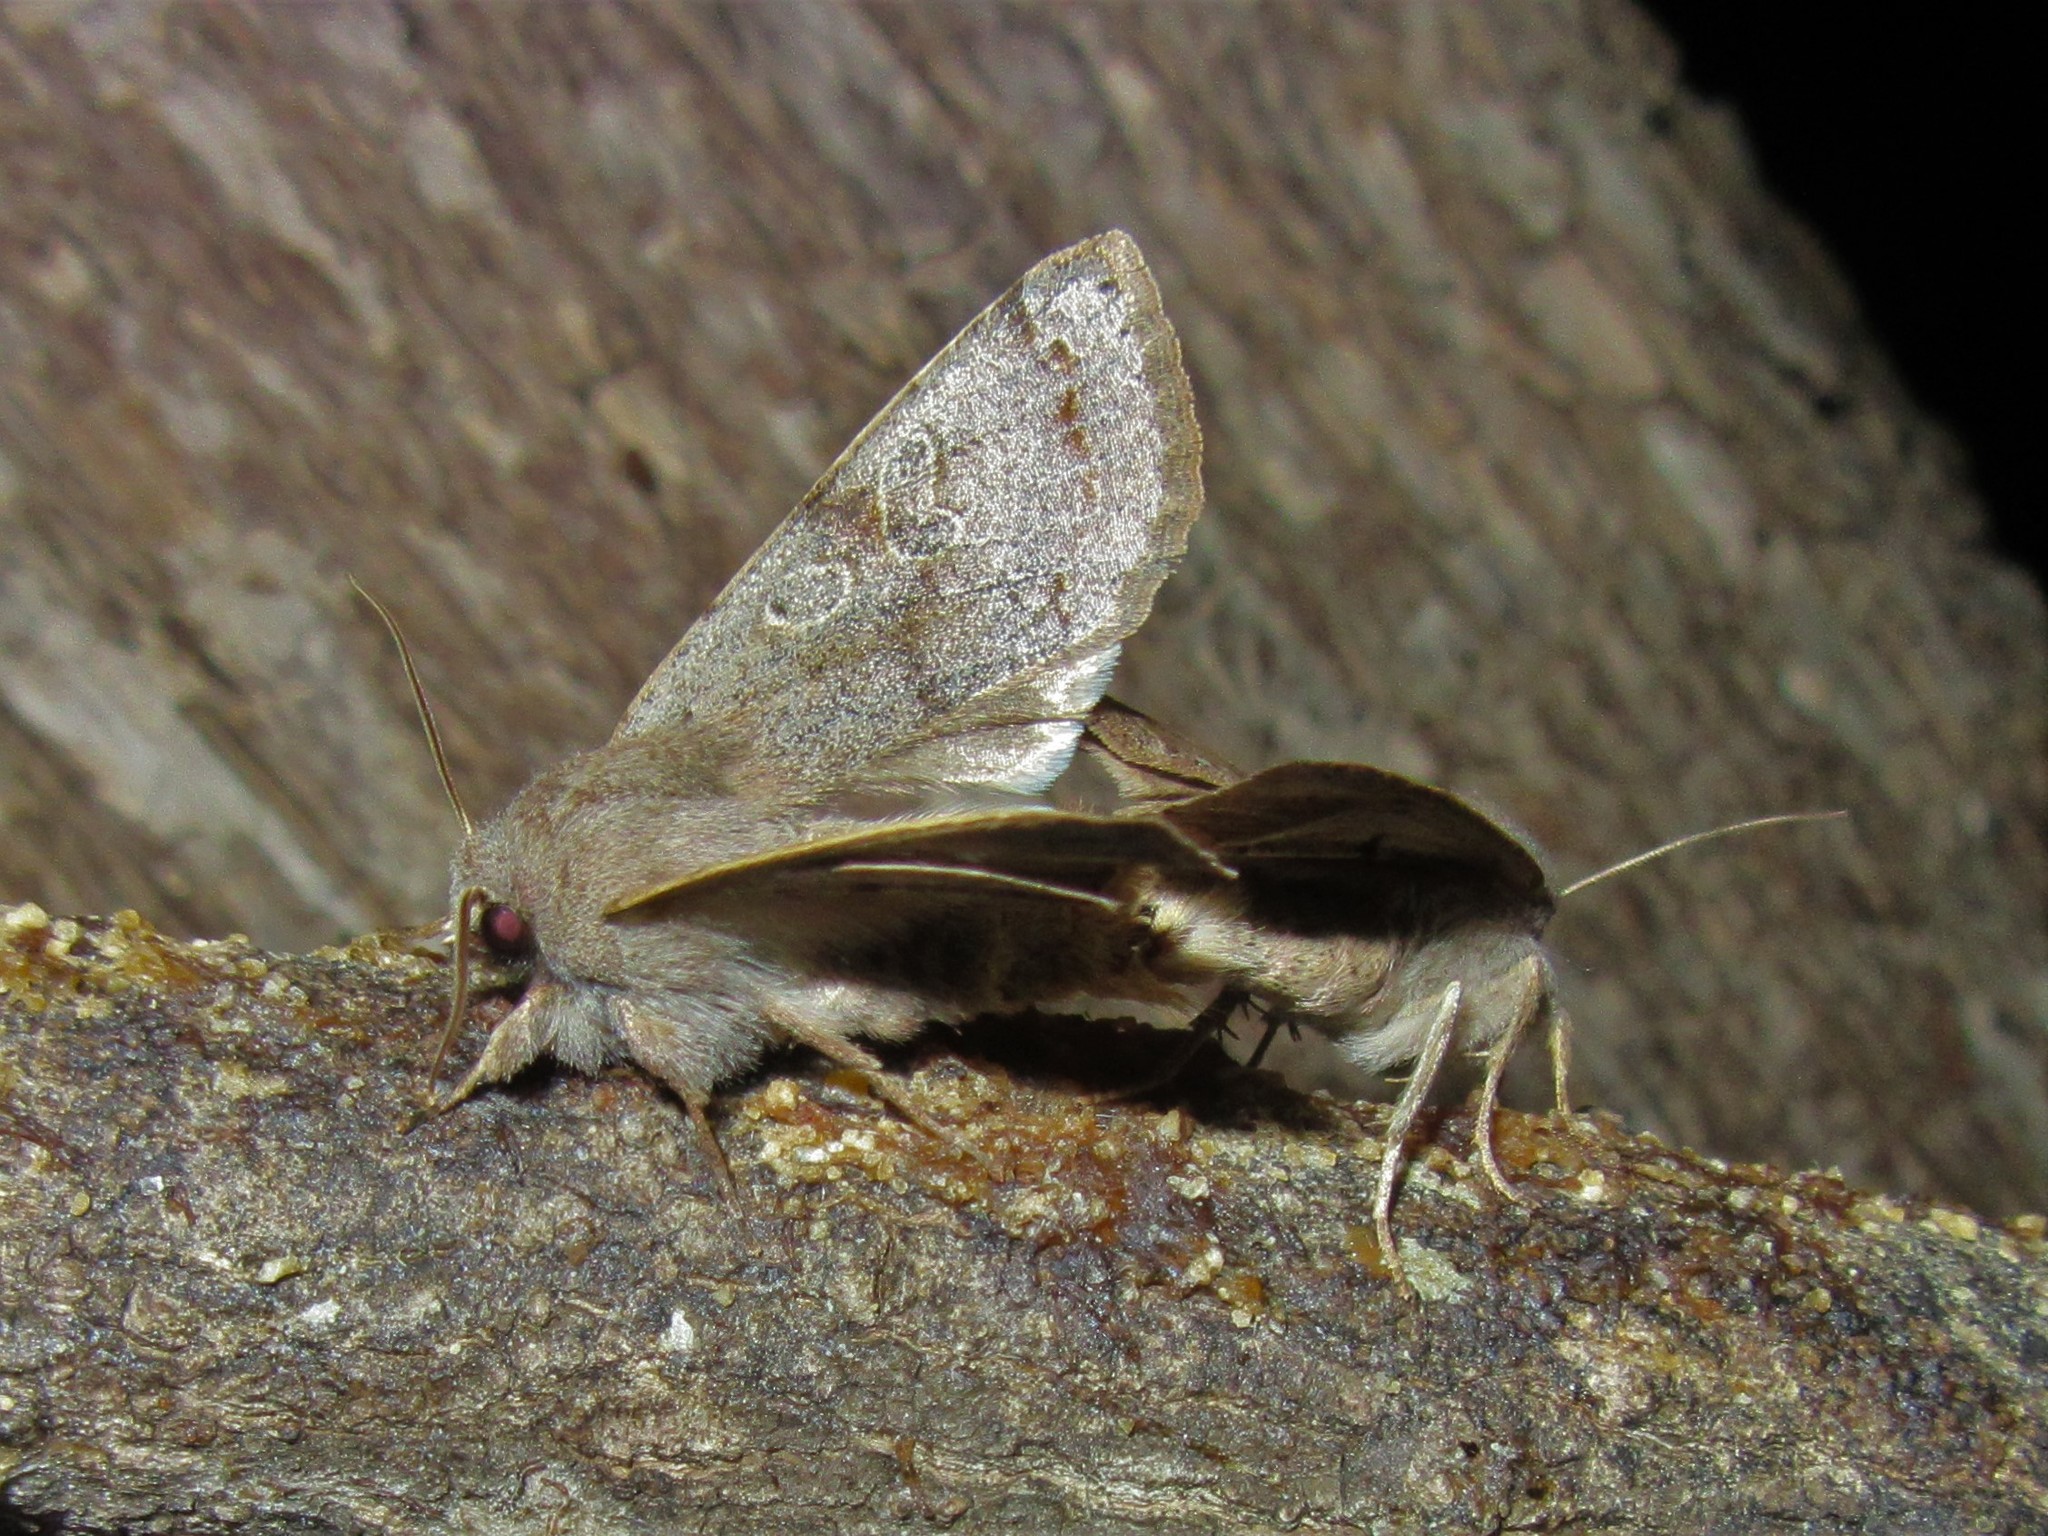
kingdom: Animalia
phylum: Arthropoda
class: Insecta
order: Lepidoptera
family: Noctuidae
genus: Orthosia
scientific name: Orthosia hibisci
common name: Green fruitworm
